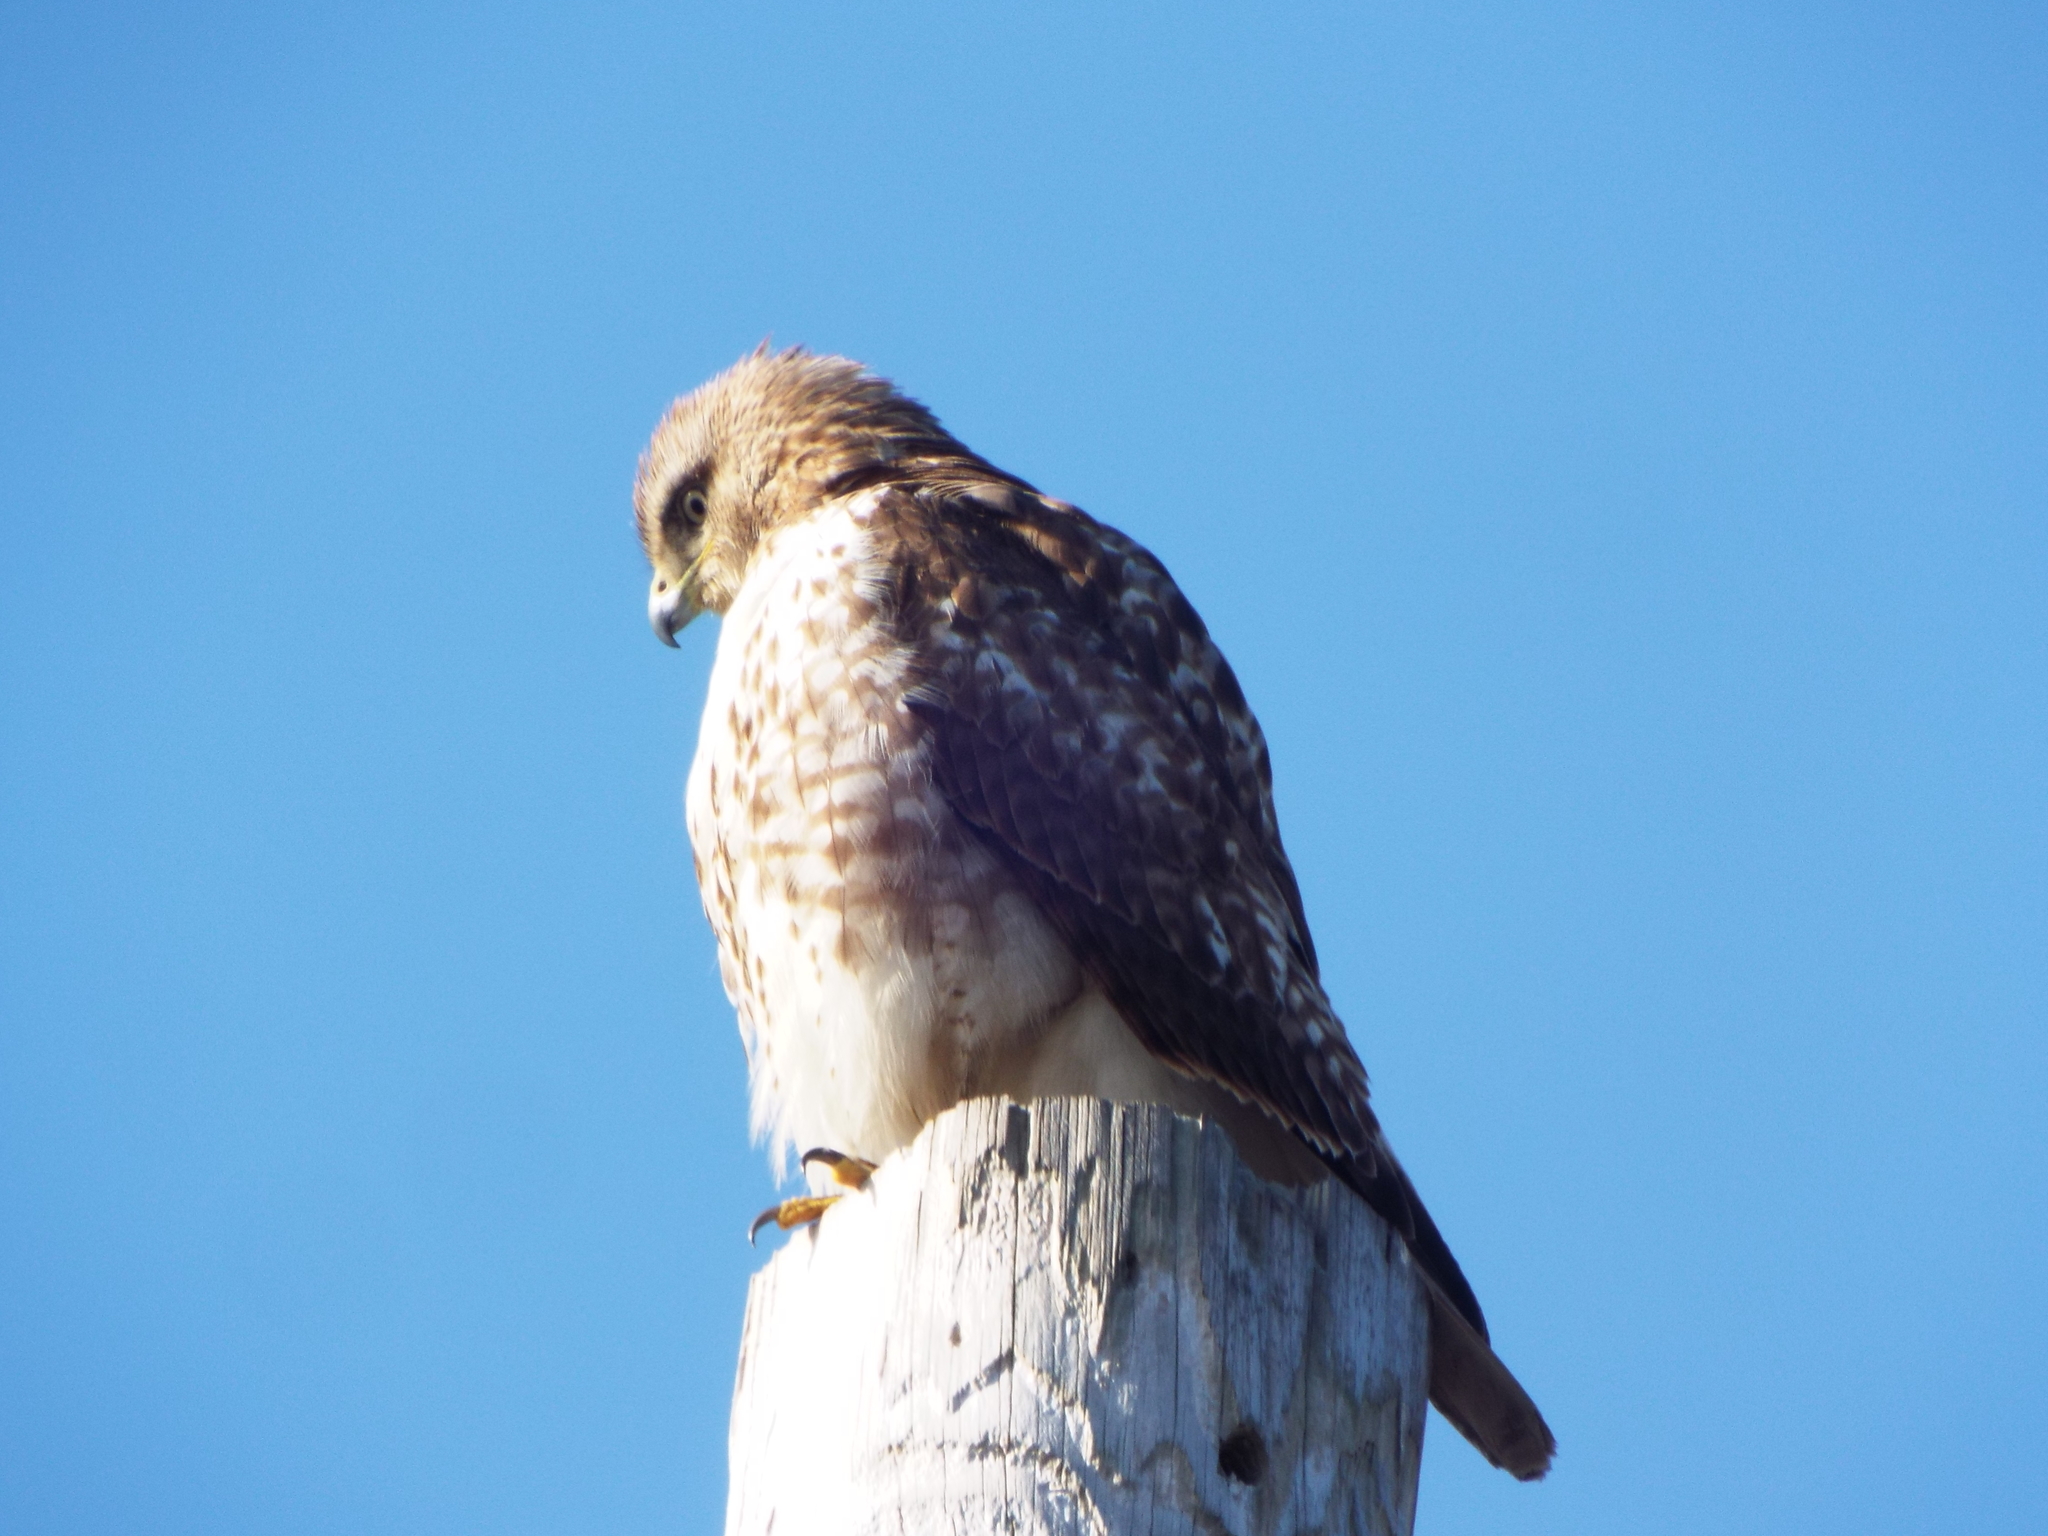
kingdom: Animalia
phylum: Chordata
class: Aves
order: Accipitriformes
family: Accipitridae
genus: Buteo
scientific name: Buteo lineatus
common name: Red-shouldered hawk
